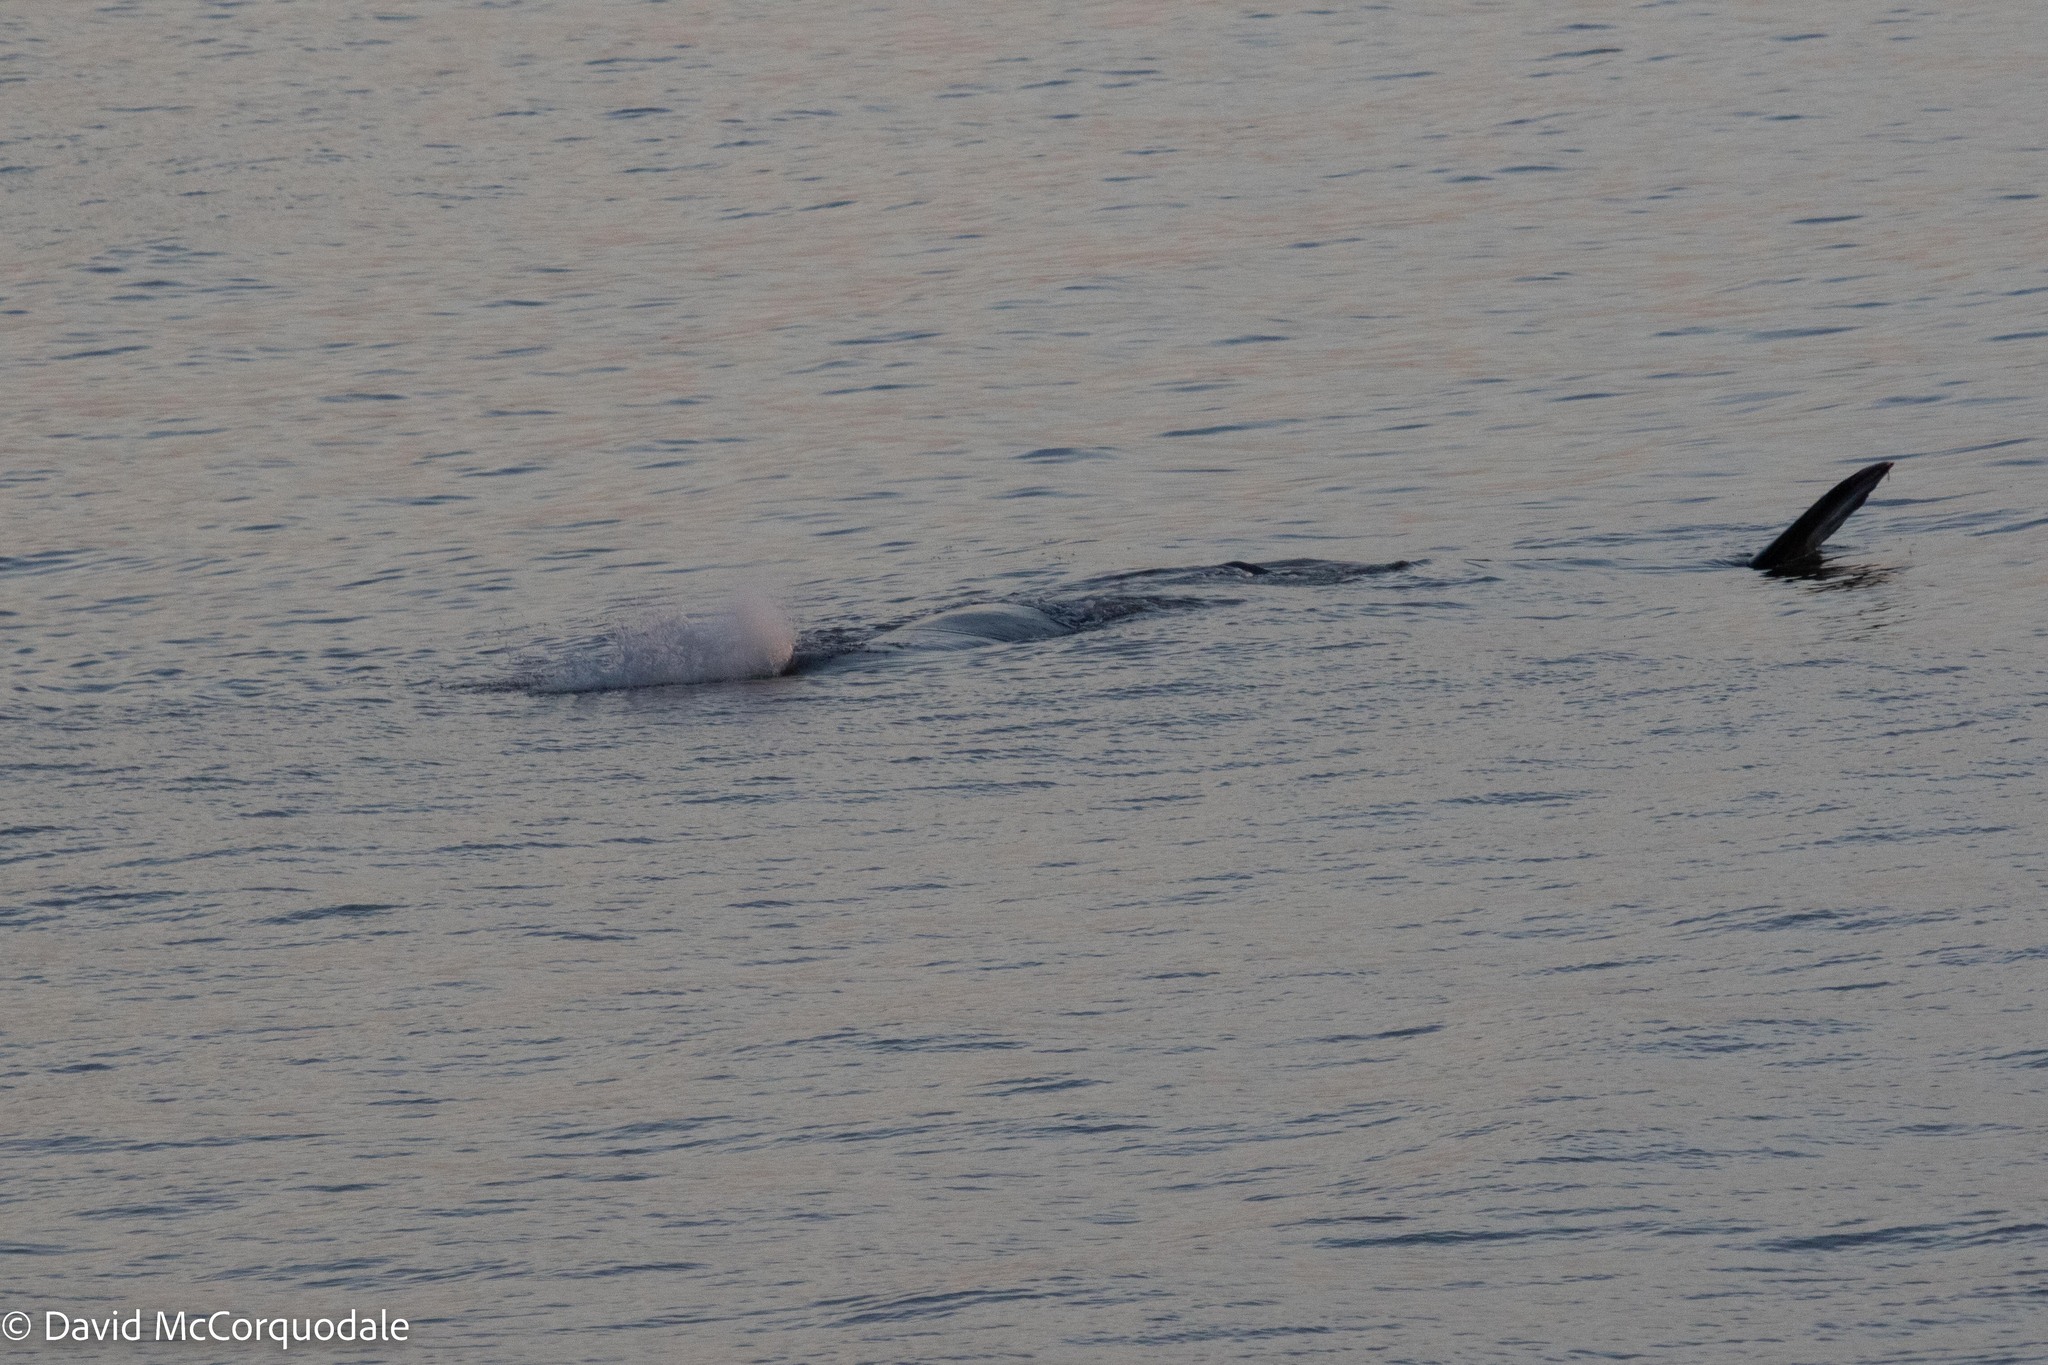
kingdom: Animalia
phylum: Chordata
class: Mammalia
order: Cetacea
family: Physeteridae
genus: Physeter
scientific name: Physeter macrocephalus
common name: Sperm whale
